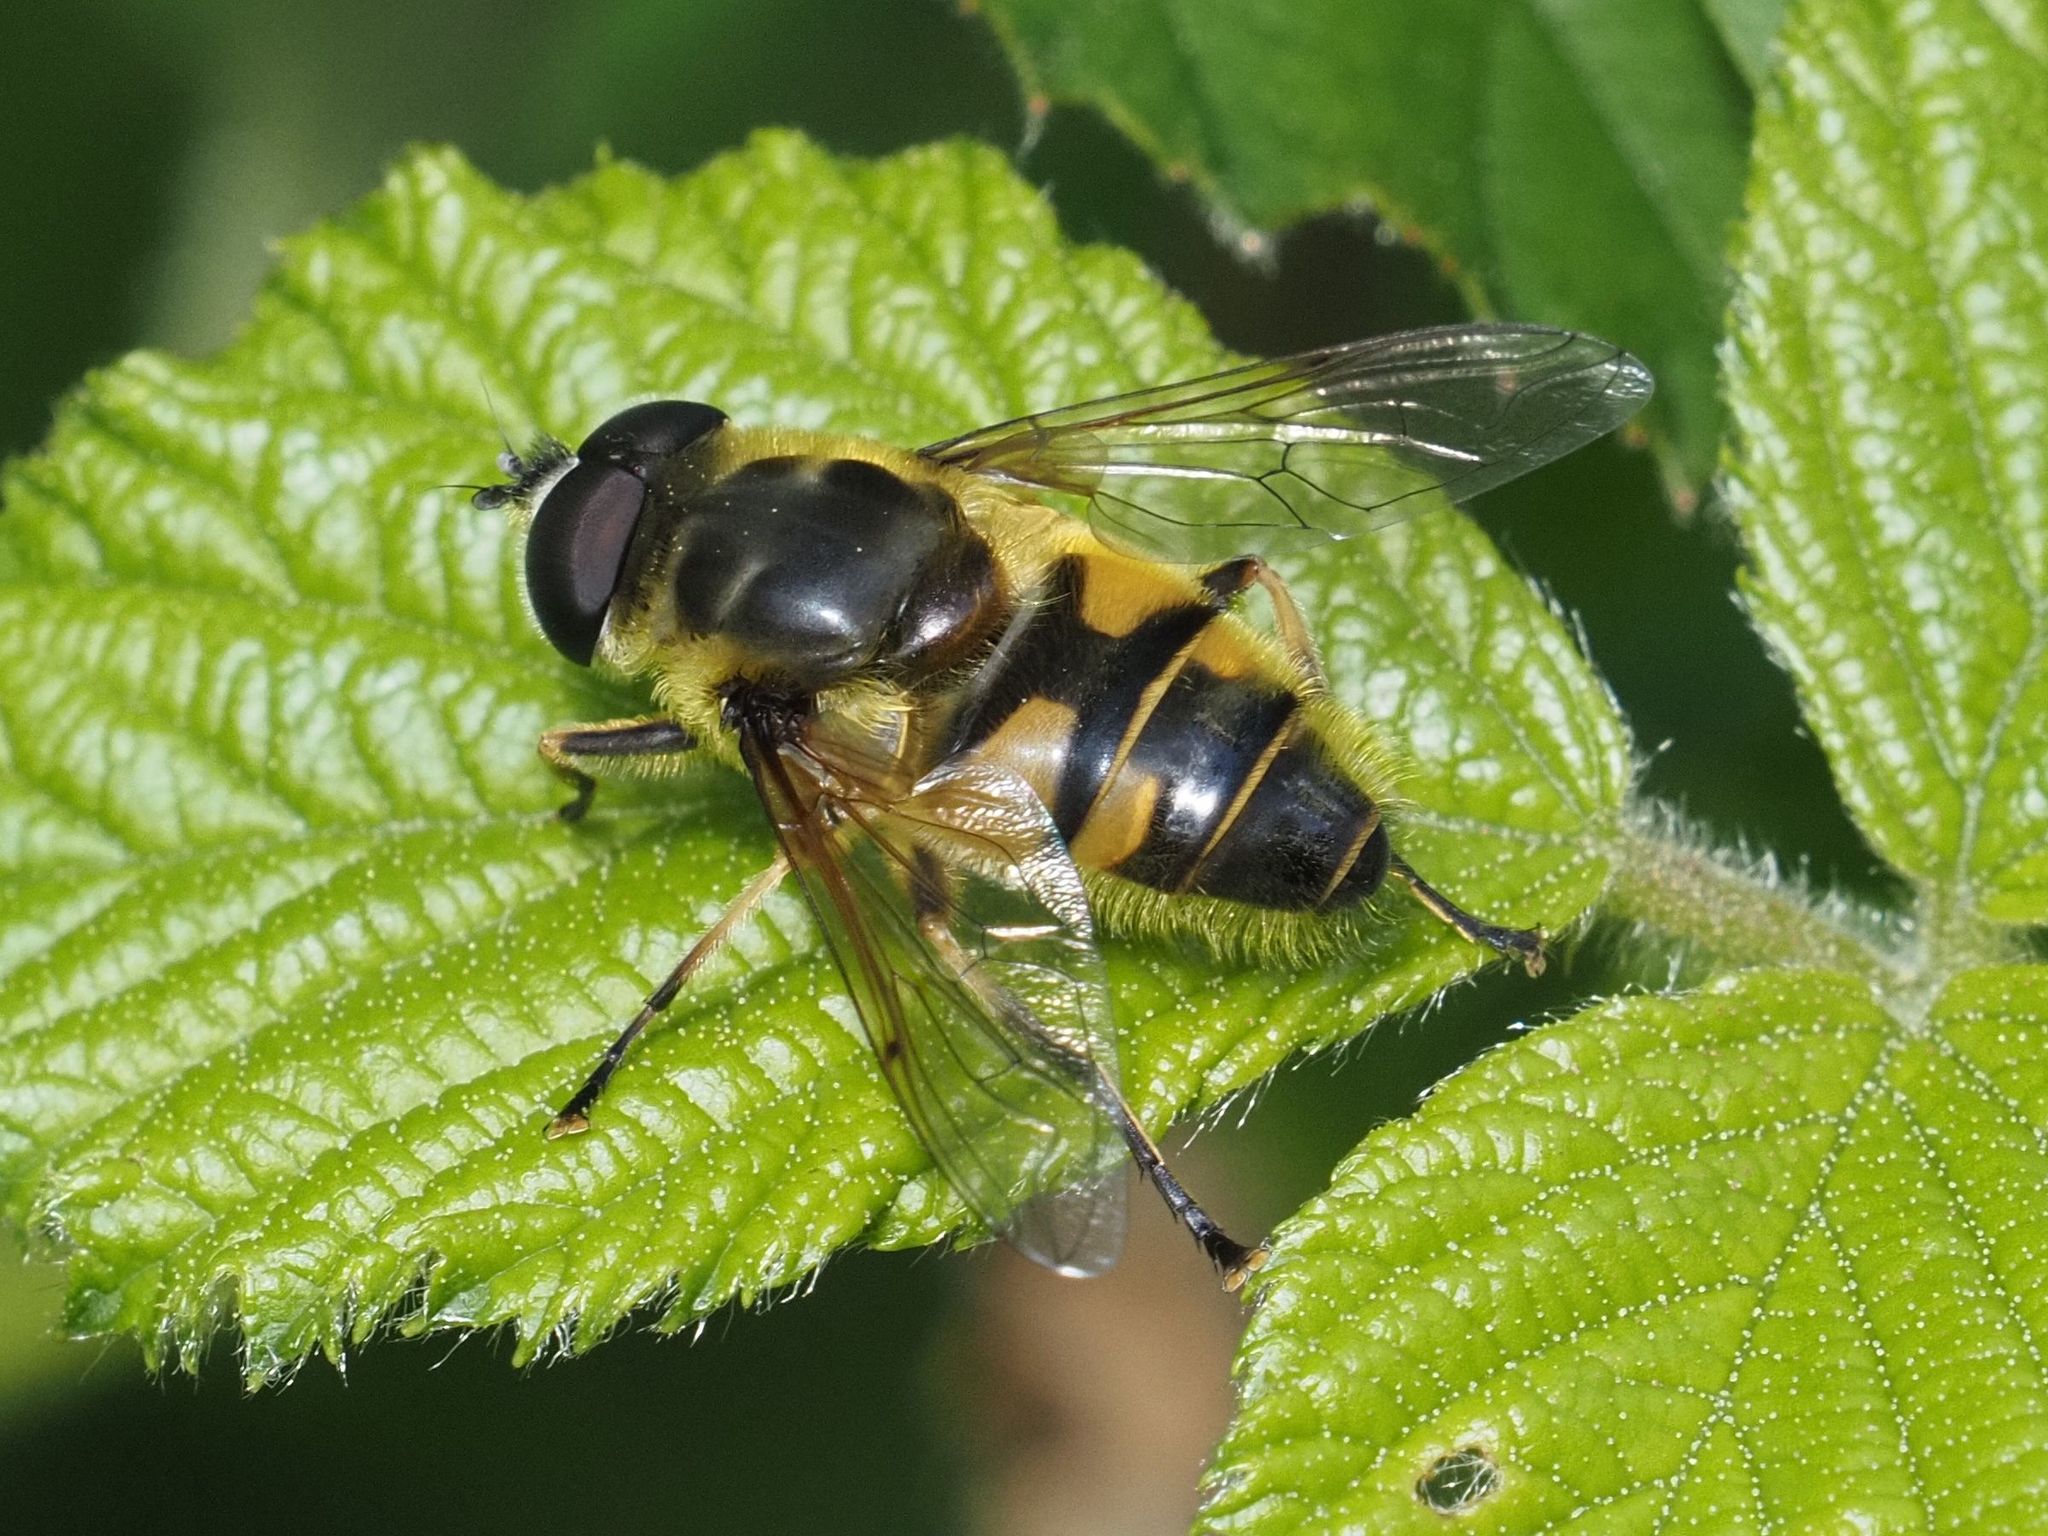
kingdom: Animalia
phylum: Arthropoda
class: Insecta
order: Diptera
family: Syrphidae
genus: Myathropa
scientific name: Myathropa florea
